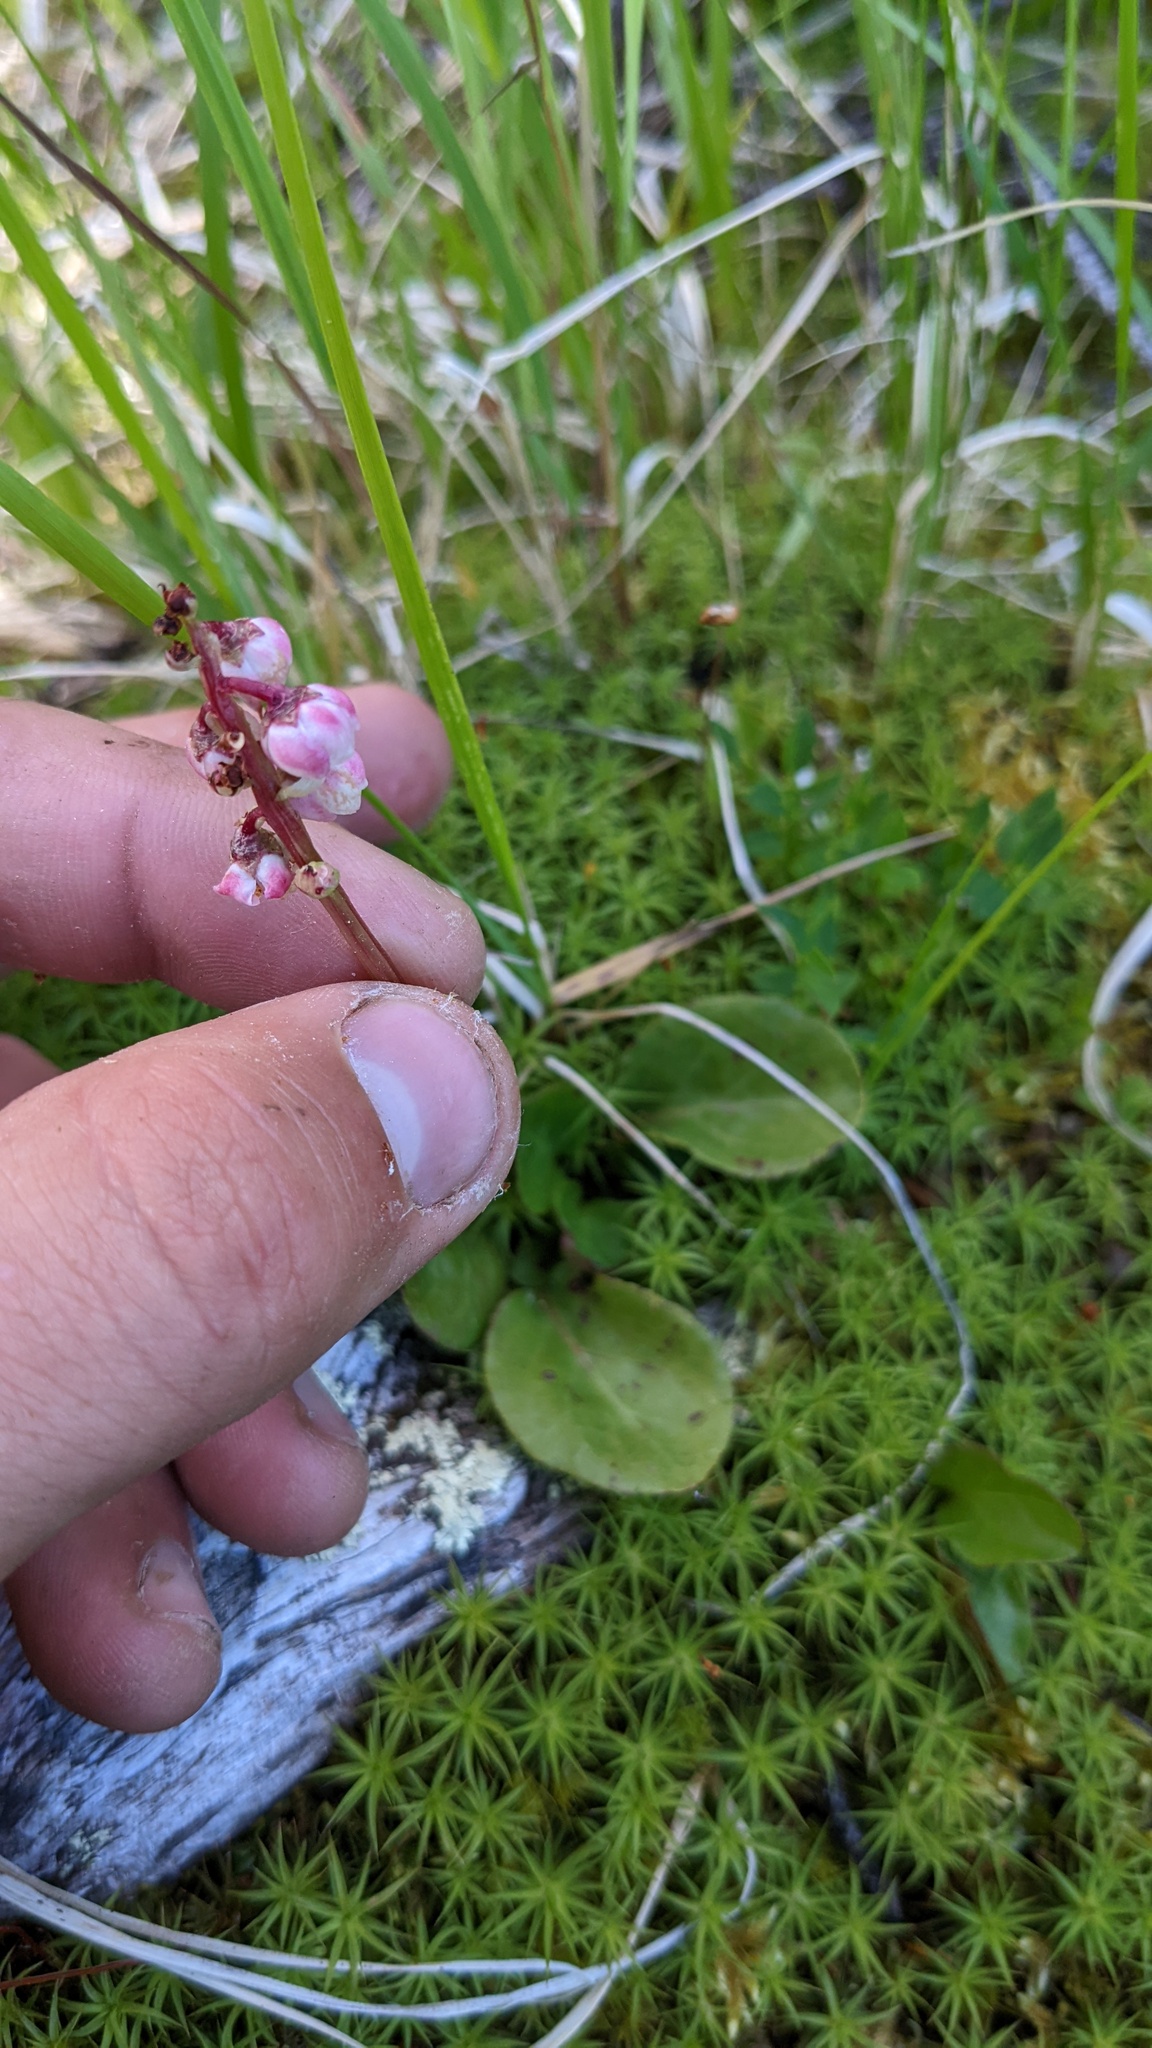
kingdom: Plantae
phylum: Tracheophyta
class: Magnoliopsida
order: Ericales
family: Ericaceae
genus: Pyrola
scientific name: Pyrola minor
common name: Common wintergreen
